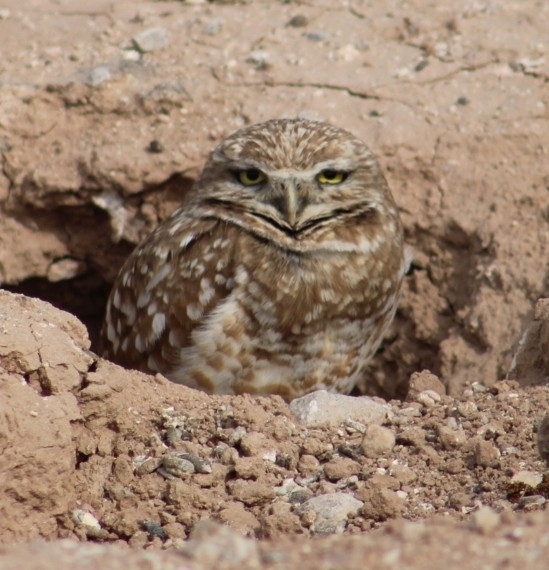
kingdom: Animalia
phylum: Chordata
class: Aves
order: Strigiformes
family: Strigidae
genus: Athene
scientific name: Athene cunicularia
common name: Burrowing owl
